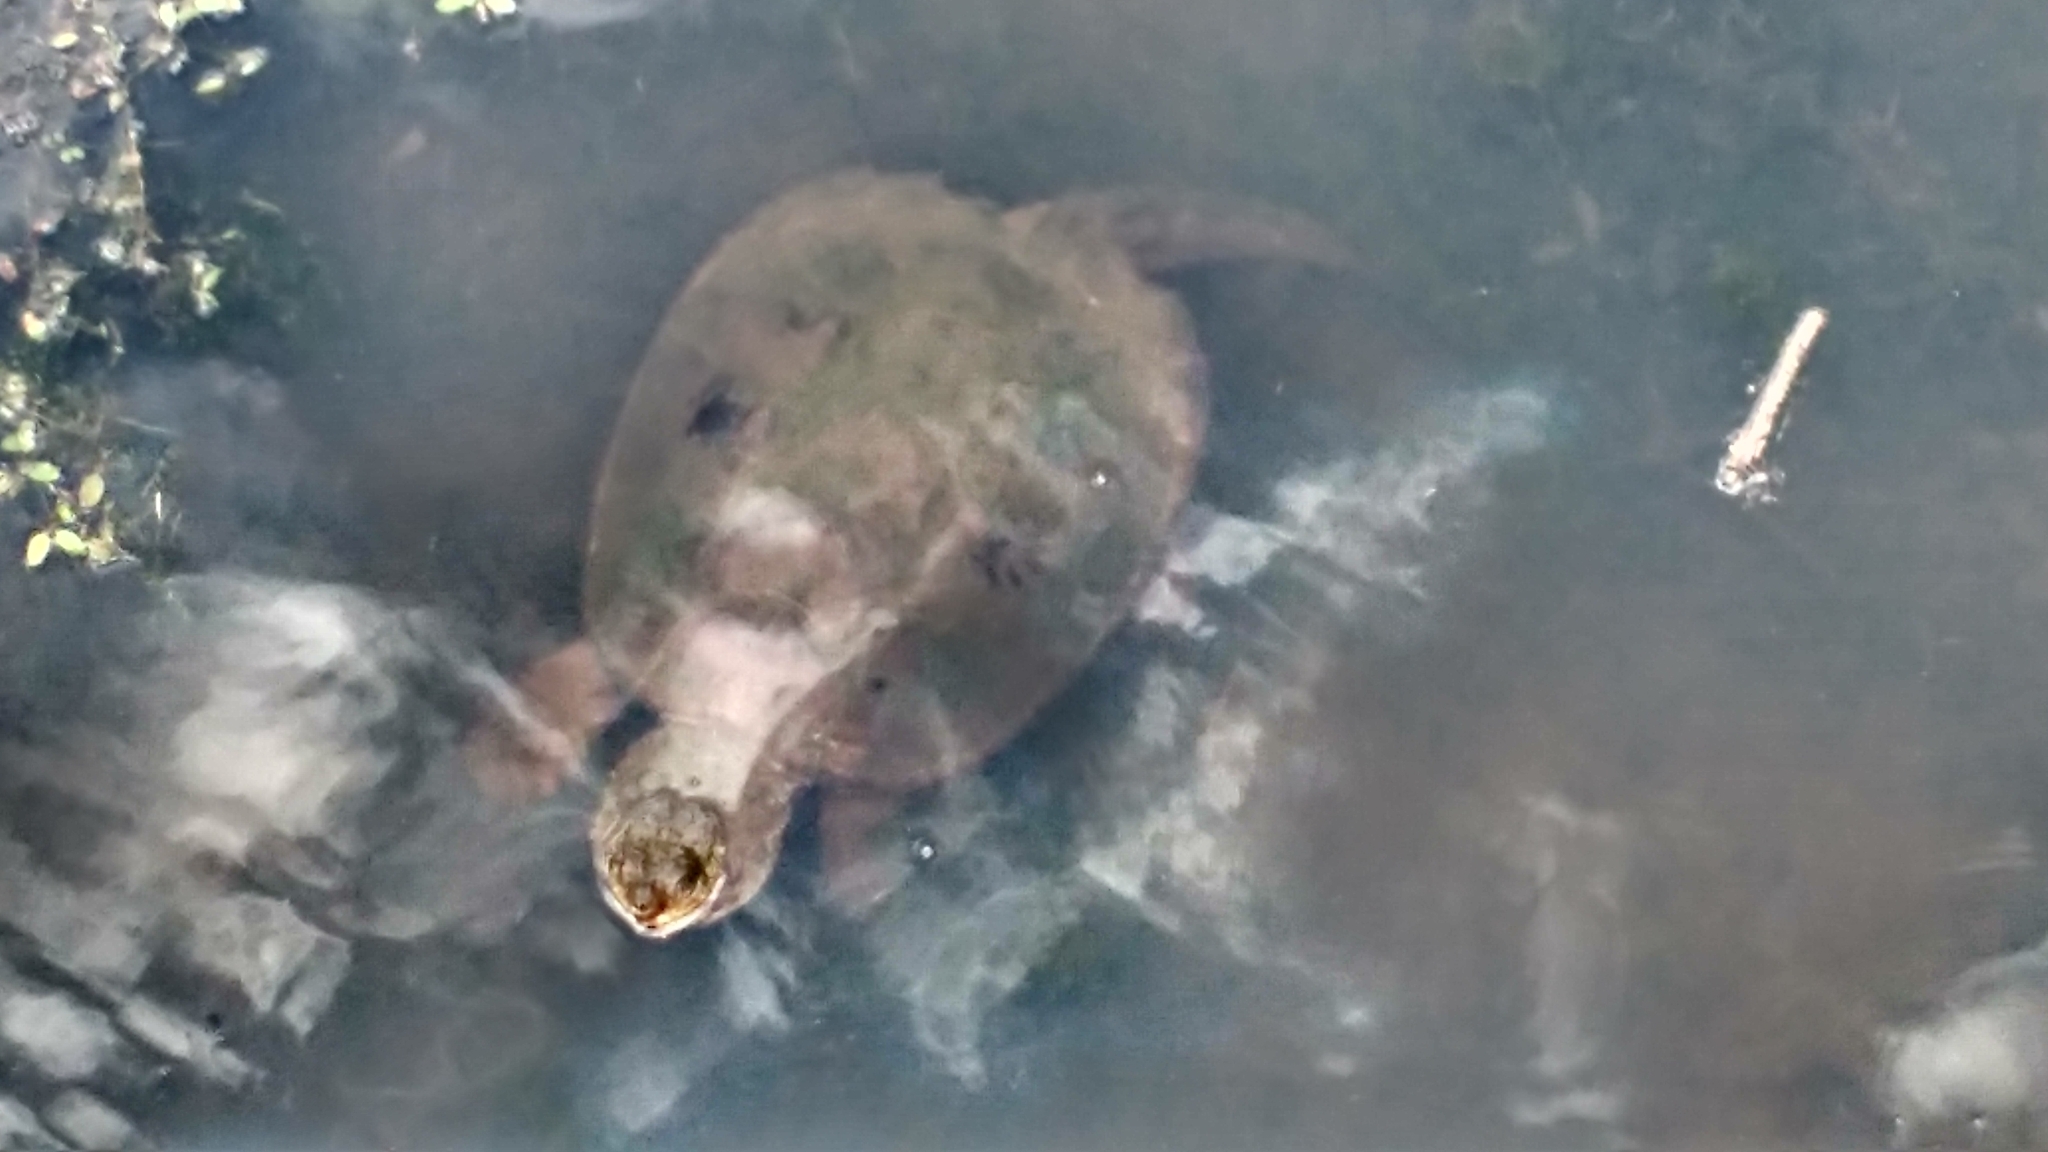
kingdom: Animalia
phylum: Chordata
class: Testudines
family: Chelydridae
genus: Chelydra
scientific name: Chelydra serpentina
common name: Common snapping turtle
